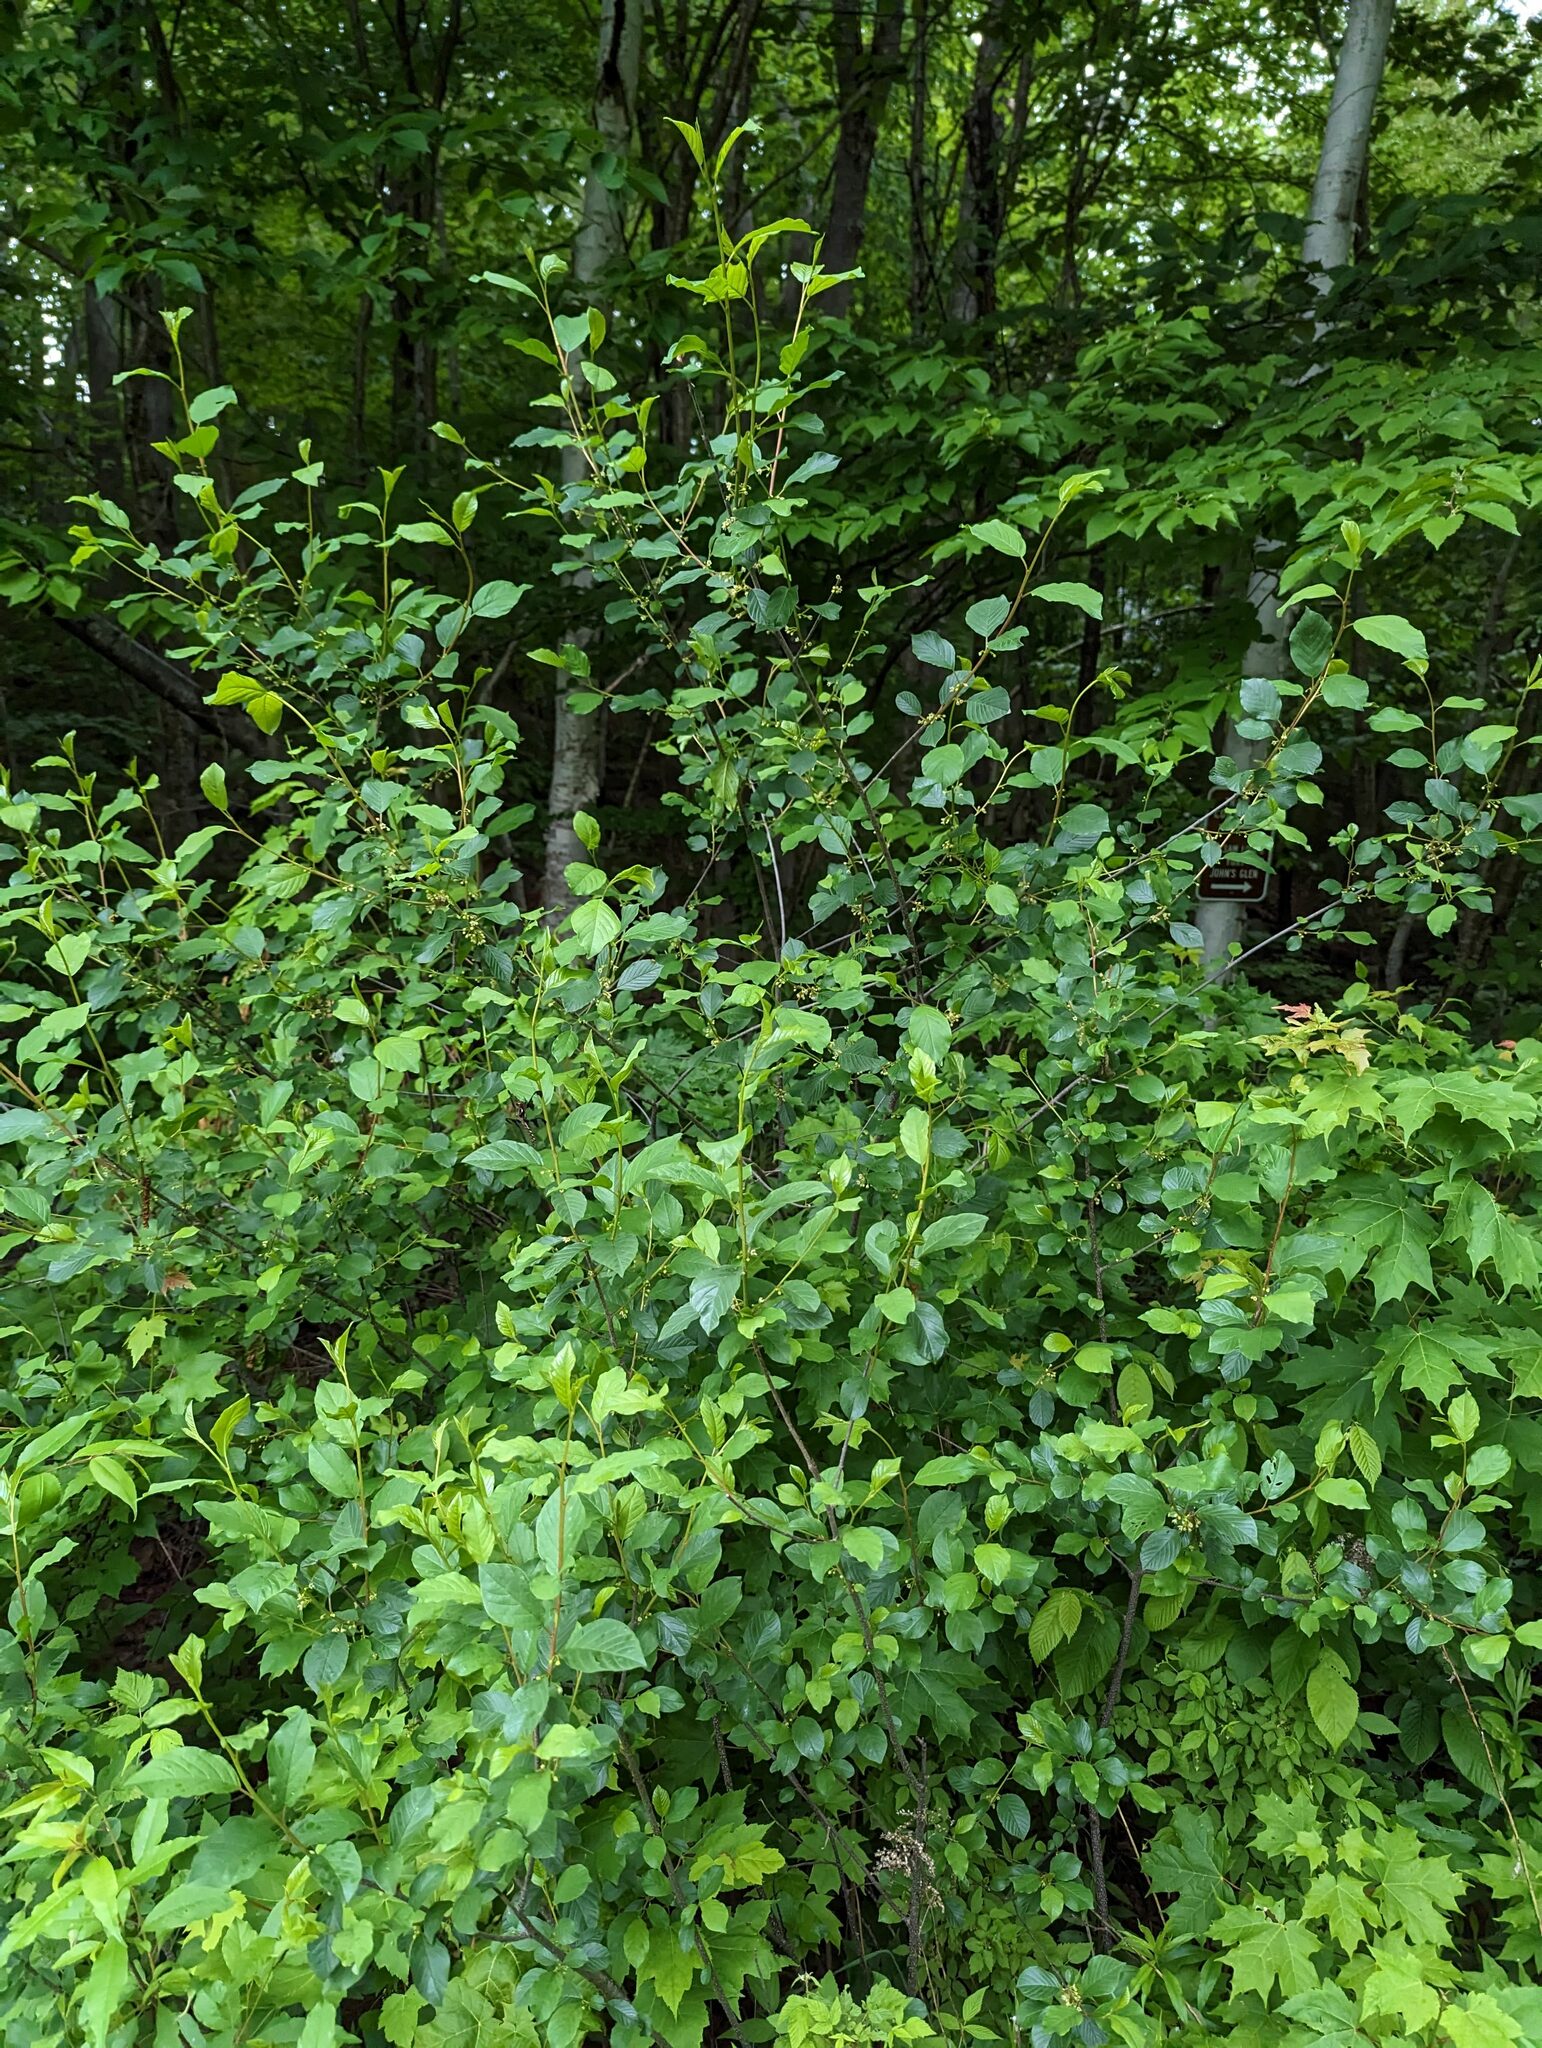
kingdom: Plantae
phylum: Tracheophyta
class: Magnoliopsida
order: Rosales
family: Rhamnaceae
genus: Frangula
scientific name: Frangula alnus
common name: Alder buckthorn
